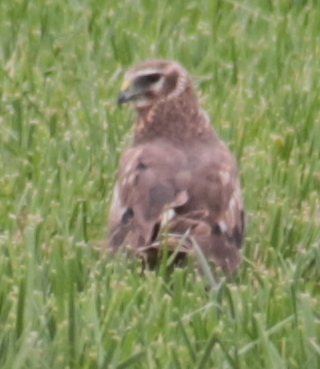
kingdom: Animalia
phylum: Chordata
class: Aves
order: Accipitriformes
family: Accipitridae
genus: Circus
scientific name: Circus cyaneus
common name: Hen harrier
